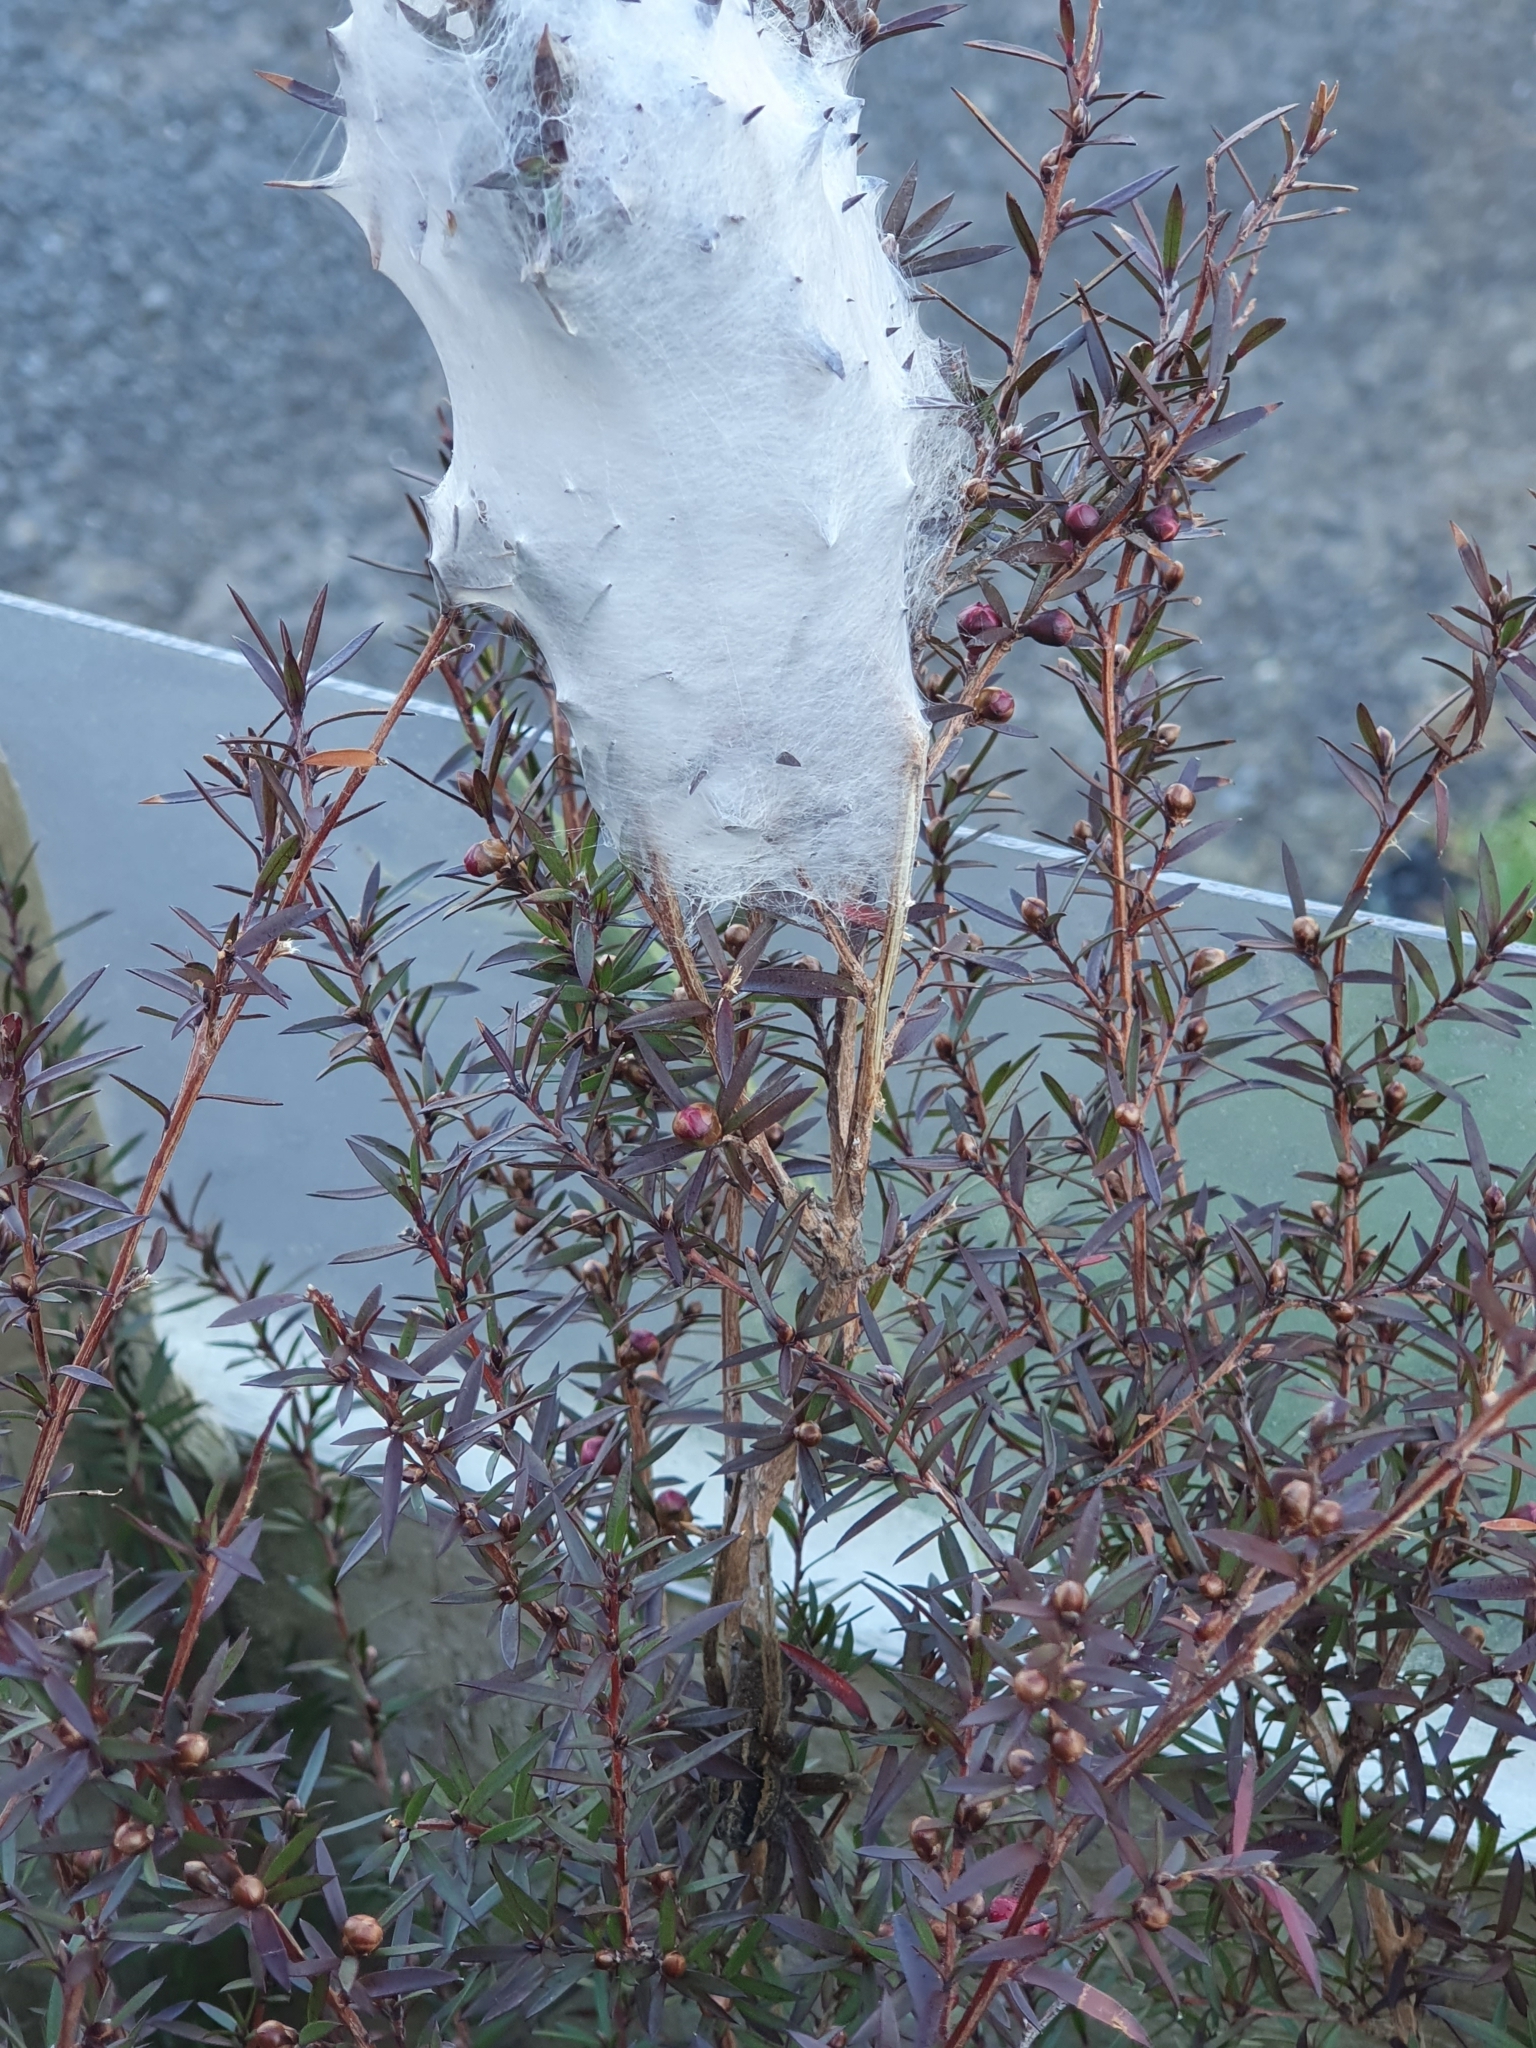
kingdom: Animalia
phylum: Arthropoda
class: Arachnida
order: Araneae
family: Pisauridae
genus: Dolomedes
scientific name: Dolomedes minor
